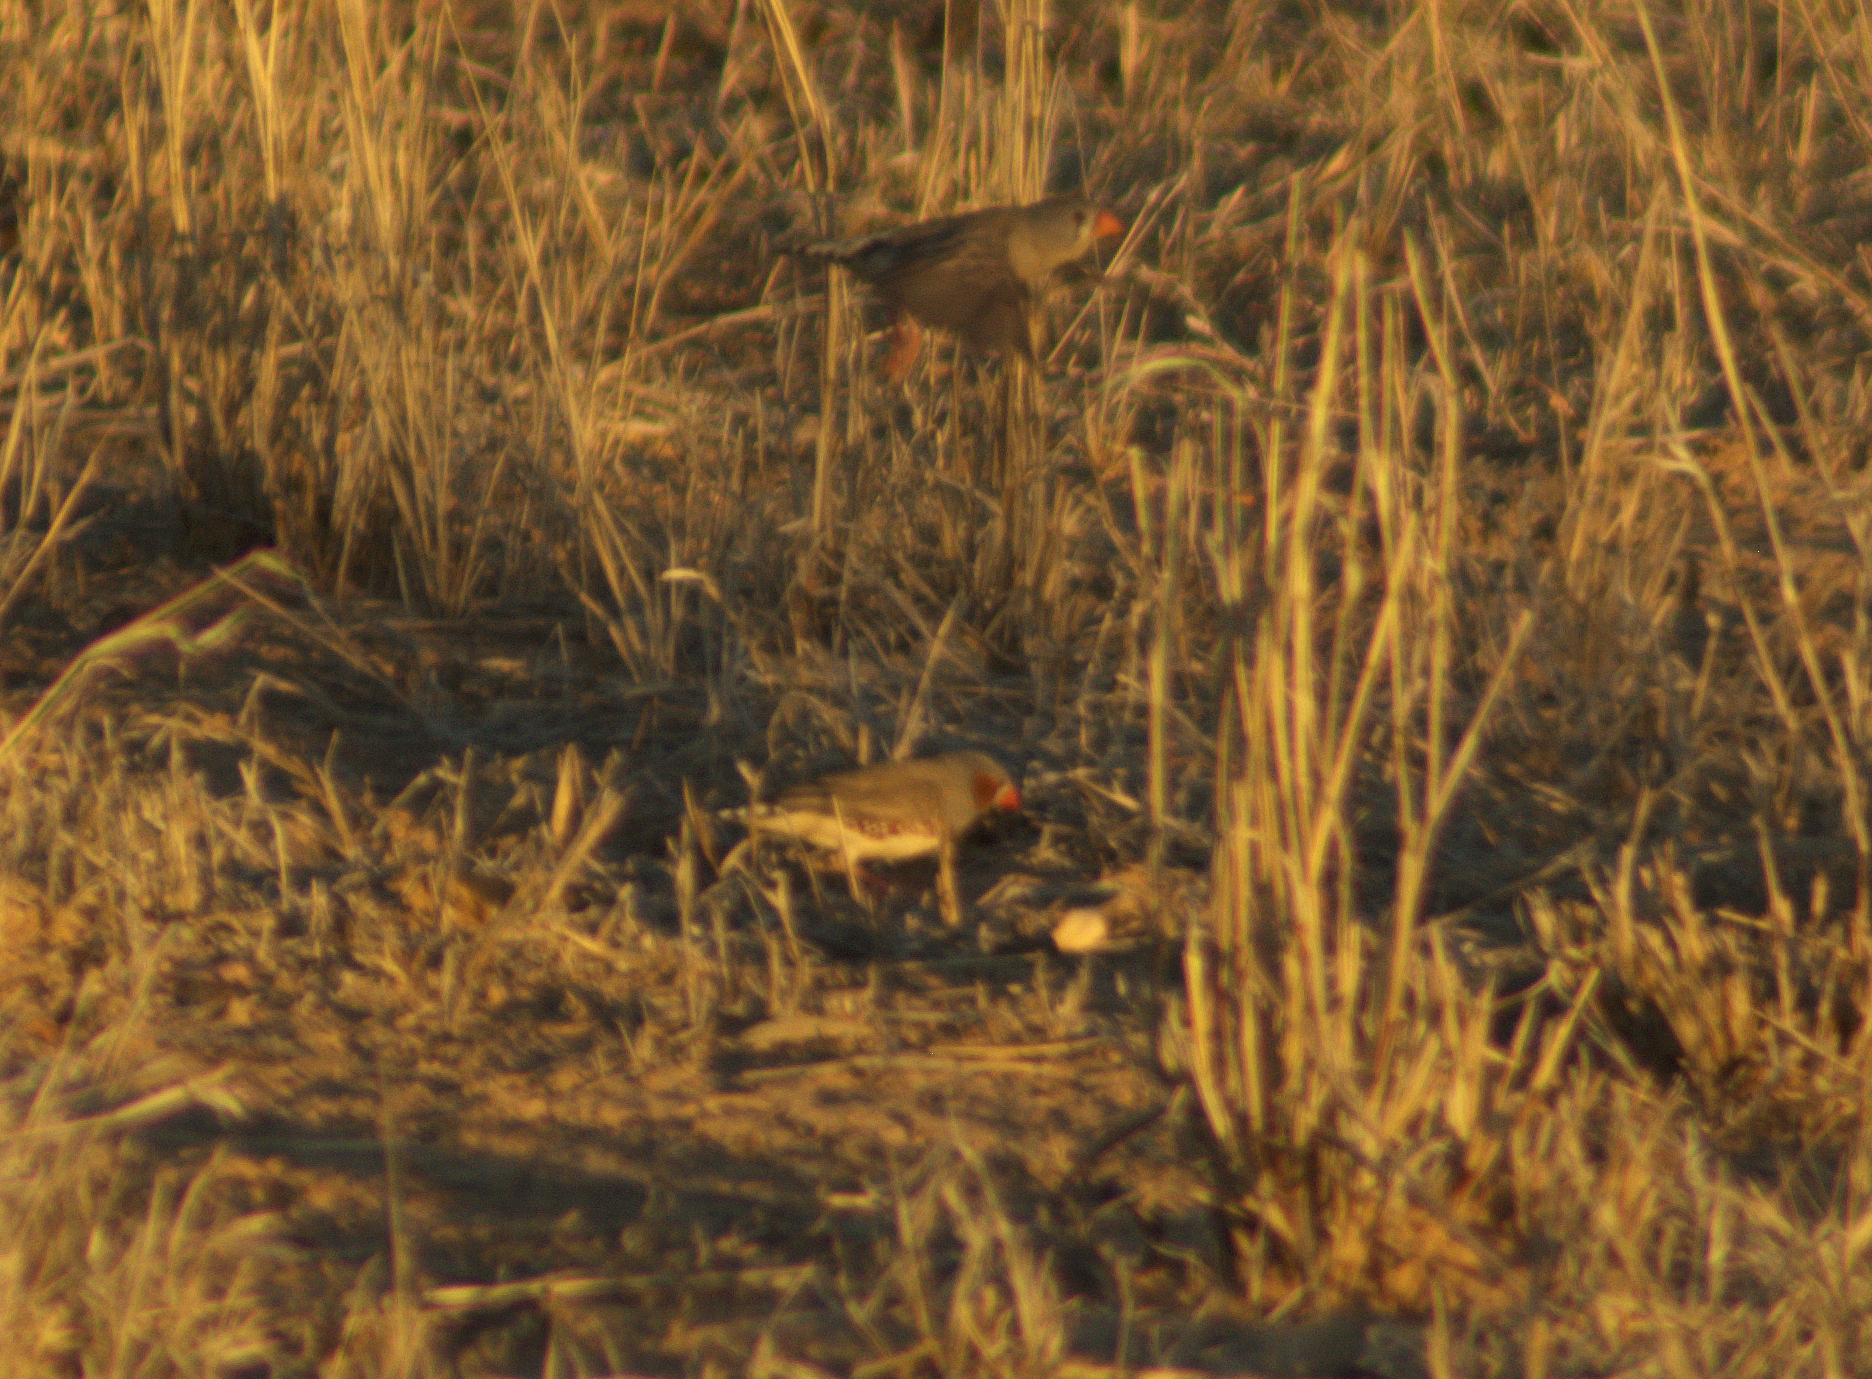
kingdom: Animalia
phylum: Chordata
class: Aves
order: Passeriformes
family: Estrildidae
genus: Taeniopygia
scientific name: Taeniopygia guttata
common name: Zebra finch
